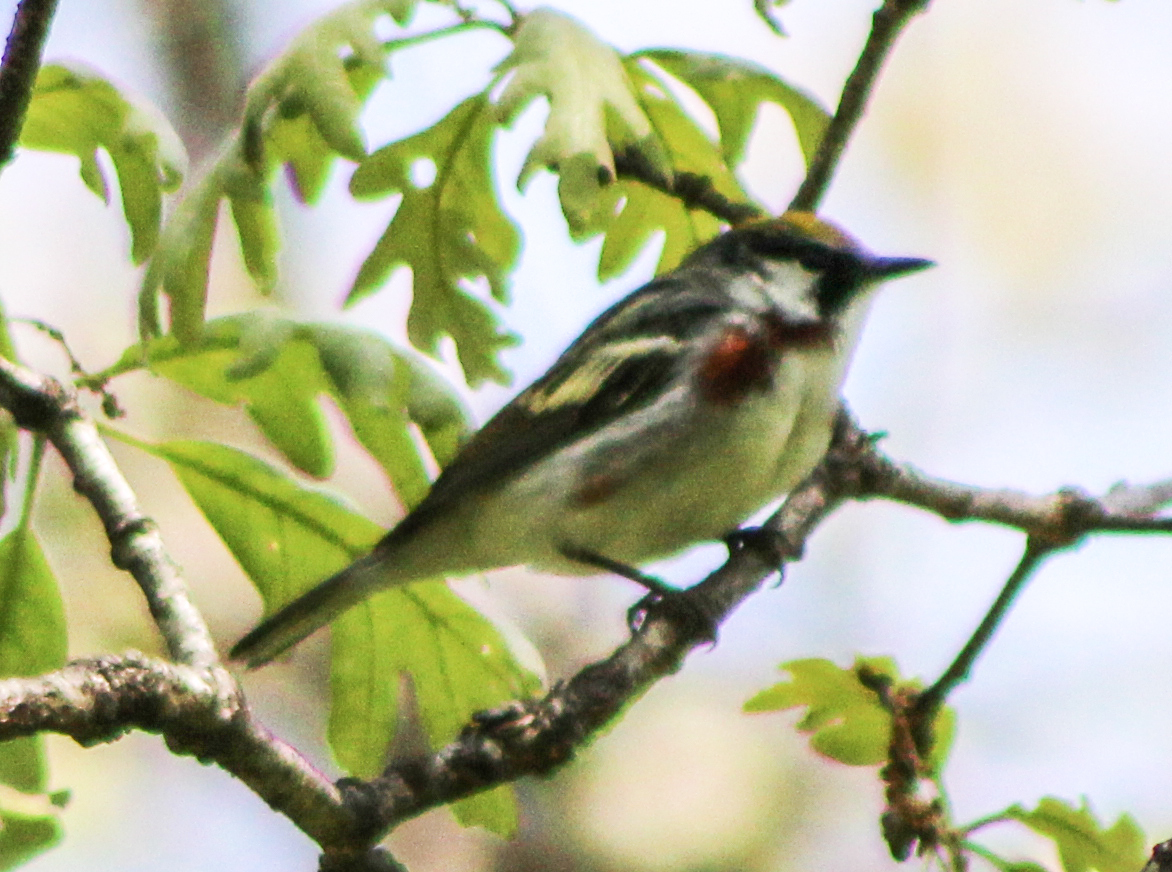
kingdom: Animalia
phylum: Chordata
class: Aves
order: Passeriformes
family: Parulidae
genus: Setophaga
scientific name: Setophaga pensylvanica
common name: Chestnut-sided warbler
